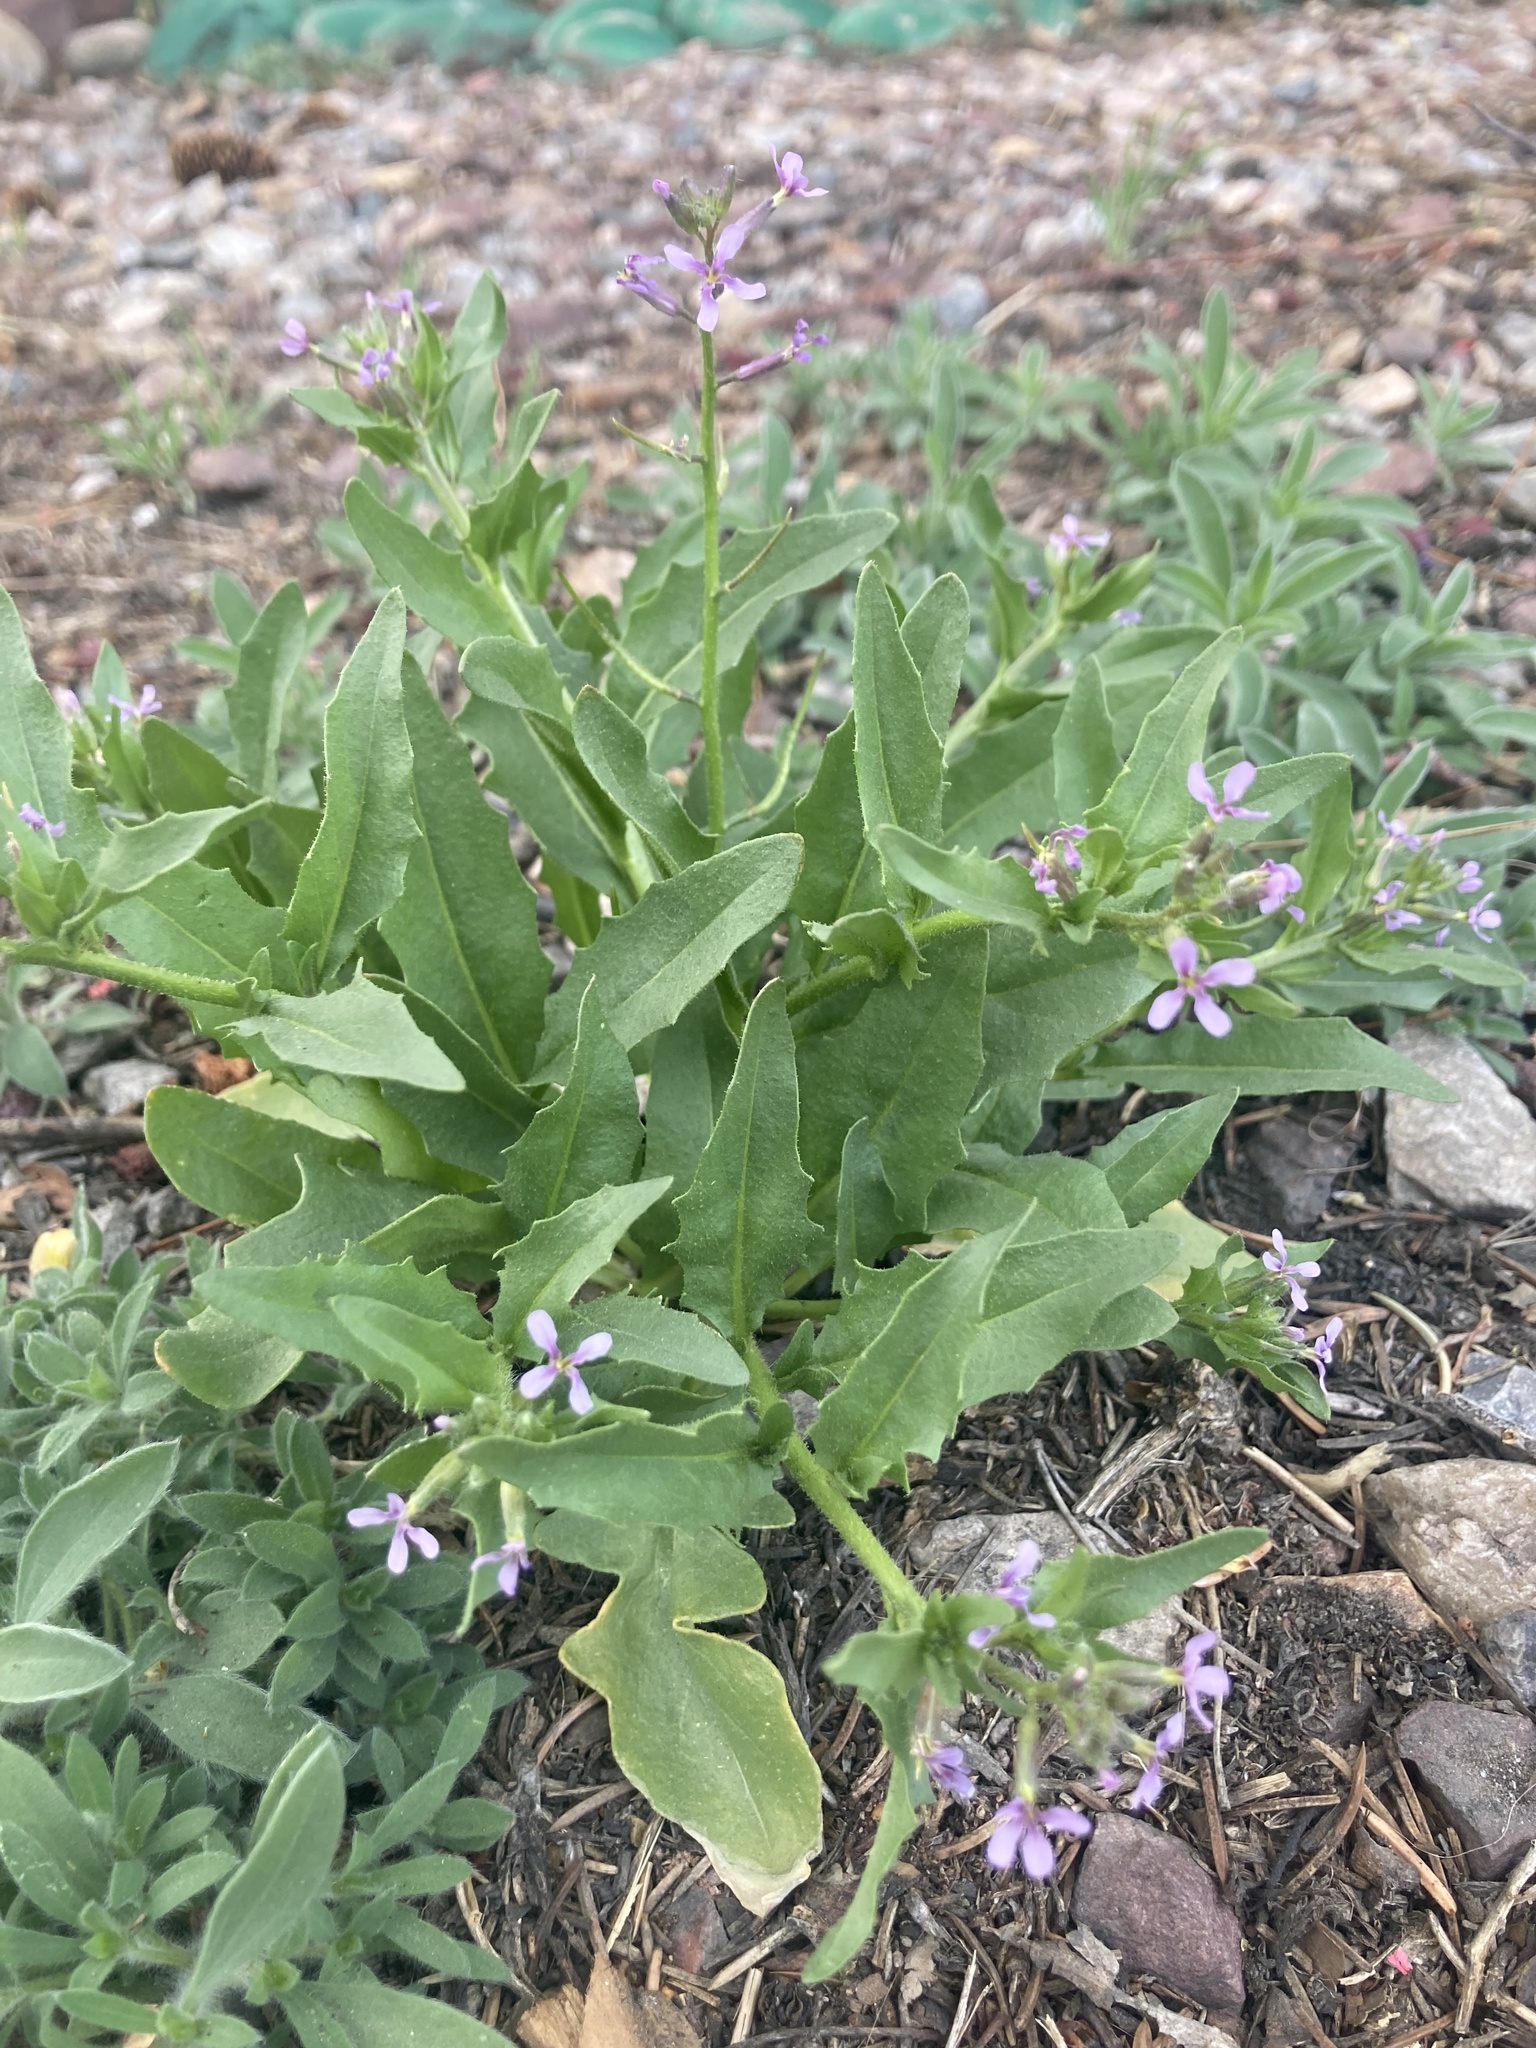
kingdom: Plantae
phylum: Tracheophyta
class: Magnoliopsida
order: Brassicales
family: Brassicaceae
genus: Chorispora
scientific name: Chorispora tenella
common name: Crossflower
